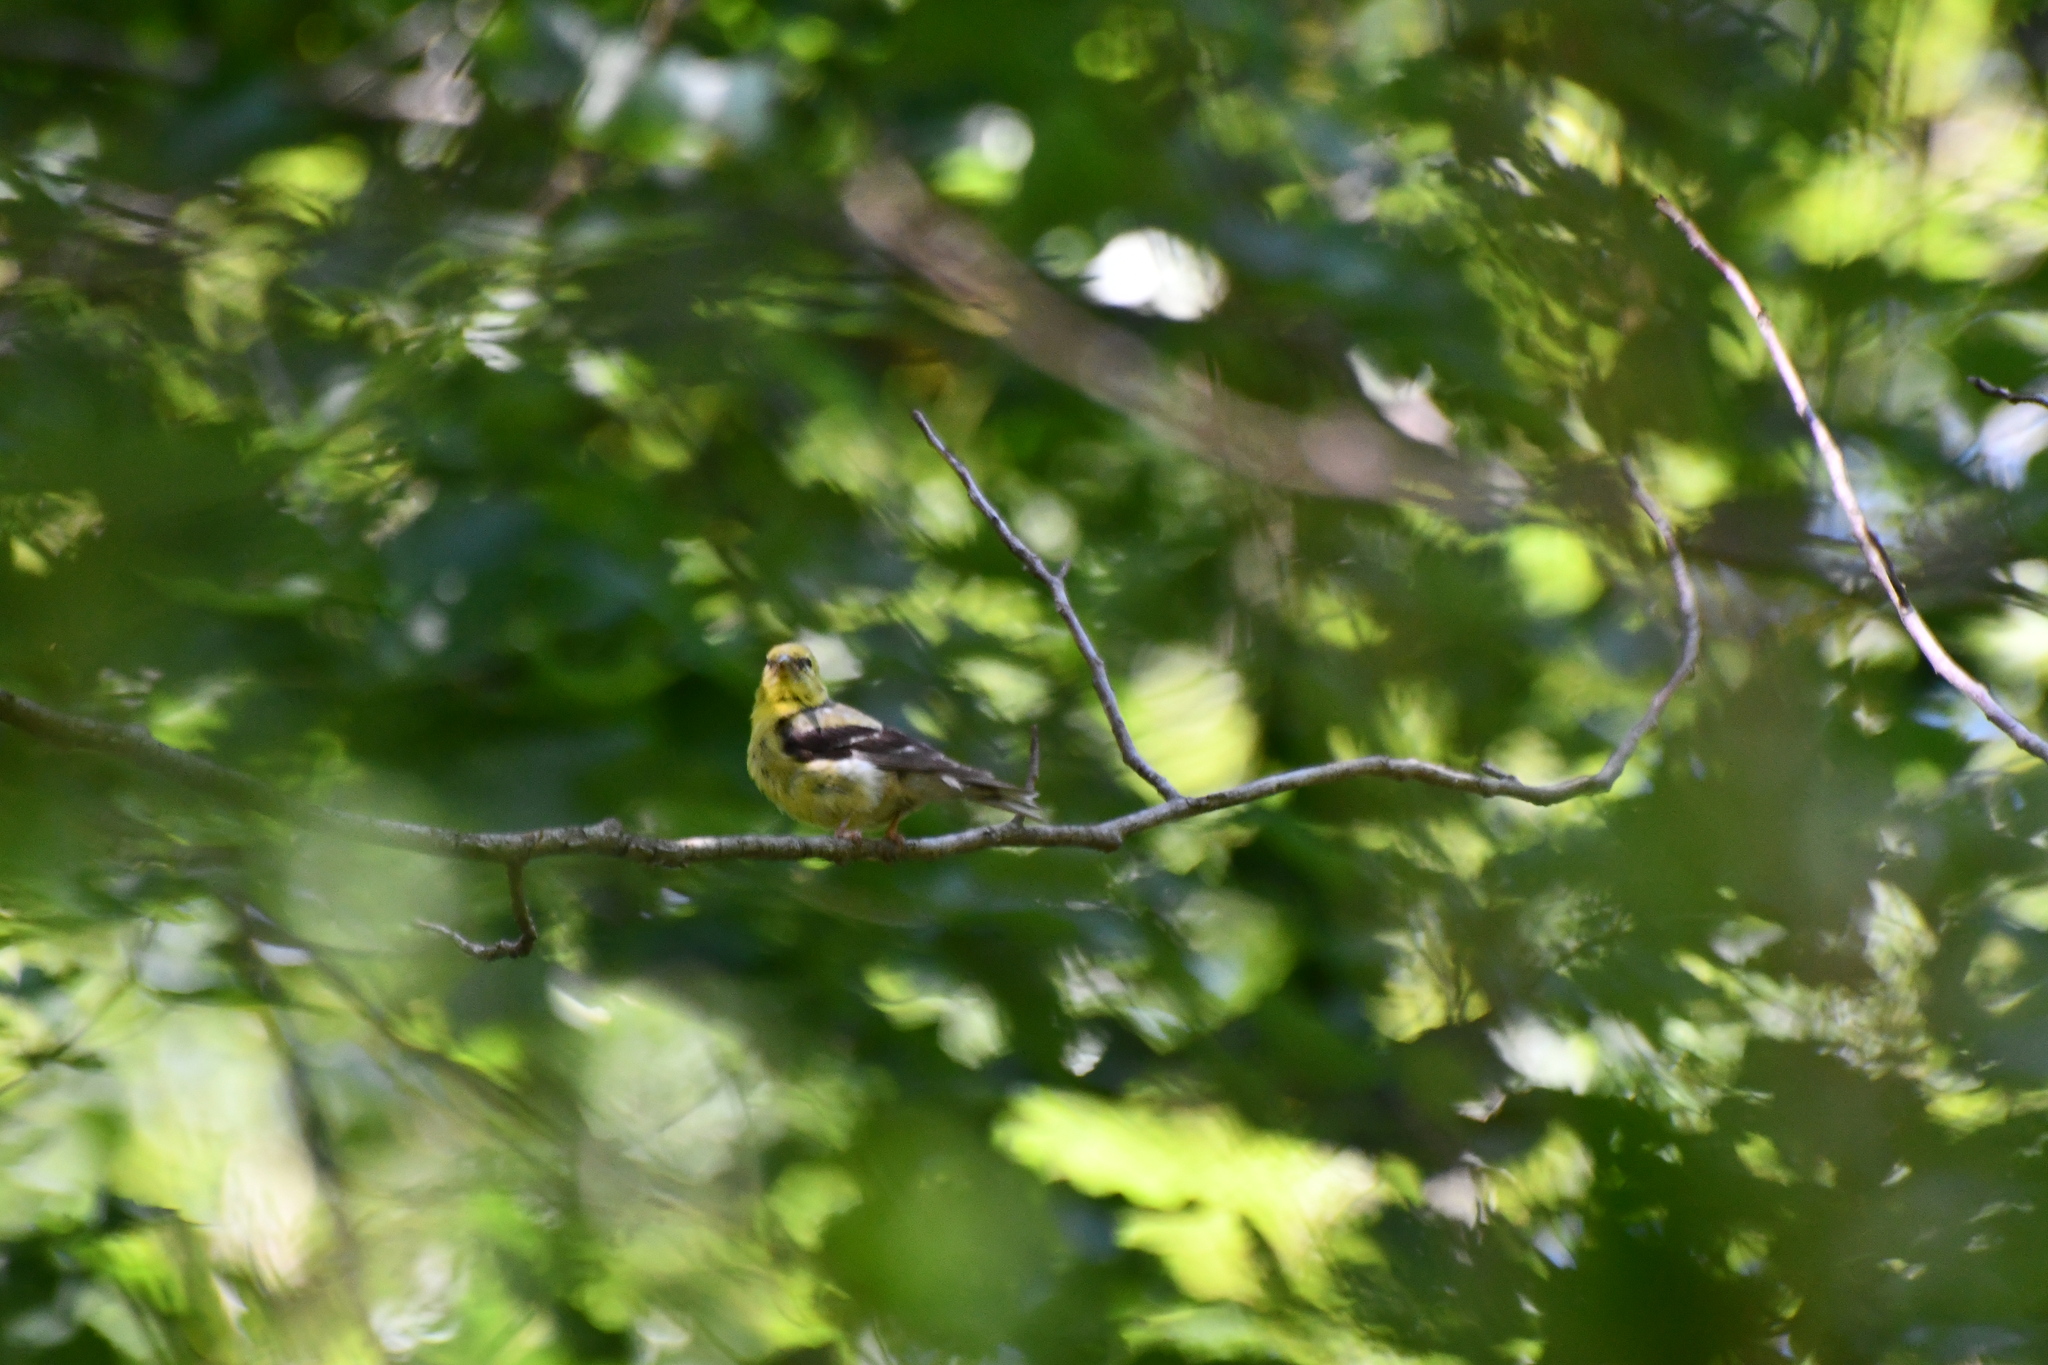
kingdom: Animalia
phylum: Chordata
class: Aves
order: Passeriformes
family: Fringillidae
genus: Spinus
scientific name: Spinus tristis
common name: American goldfinch
